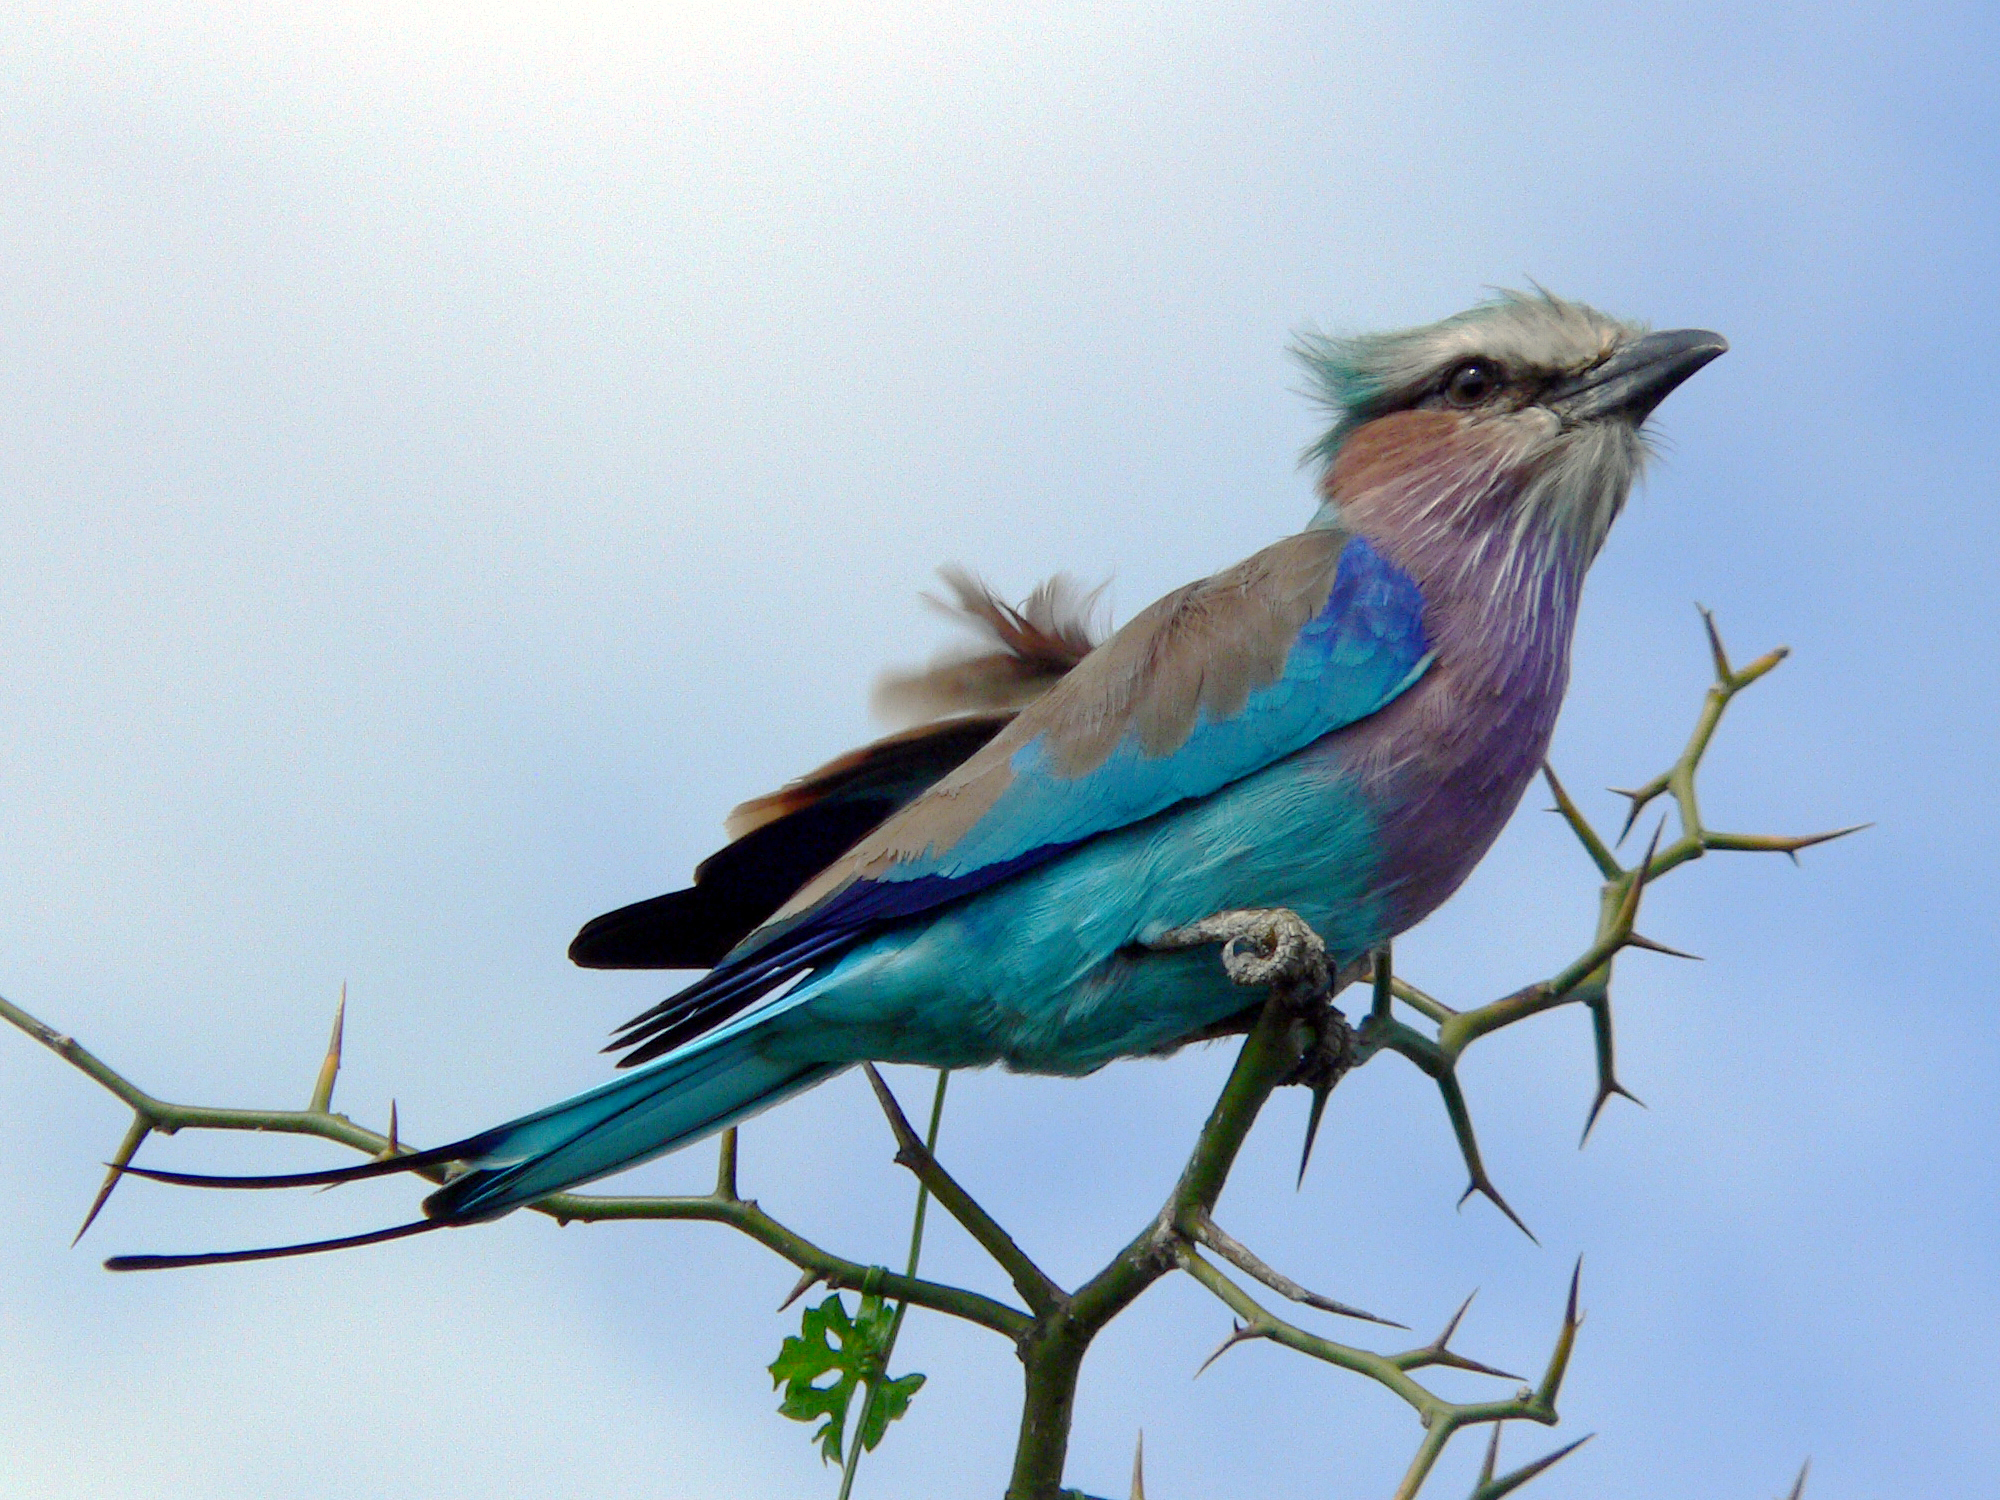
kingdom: Animalia
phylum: Chordata
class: Aves
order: Coraciiformes
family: Coraciidae
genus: Coracias
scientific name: Coracias caudatus
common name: Lilac-breasted roller
